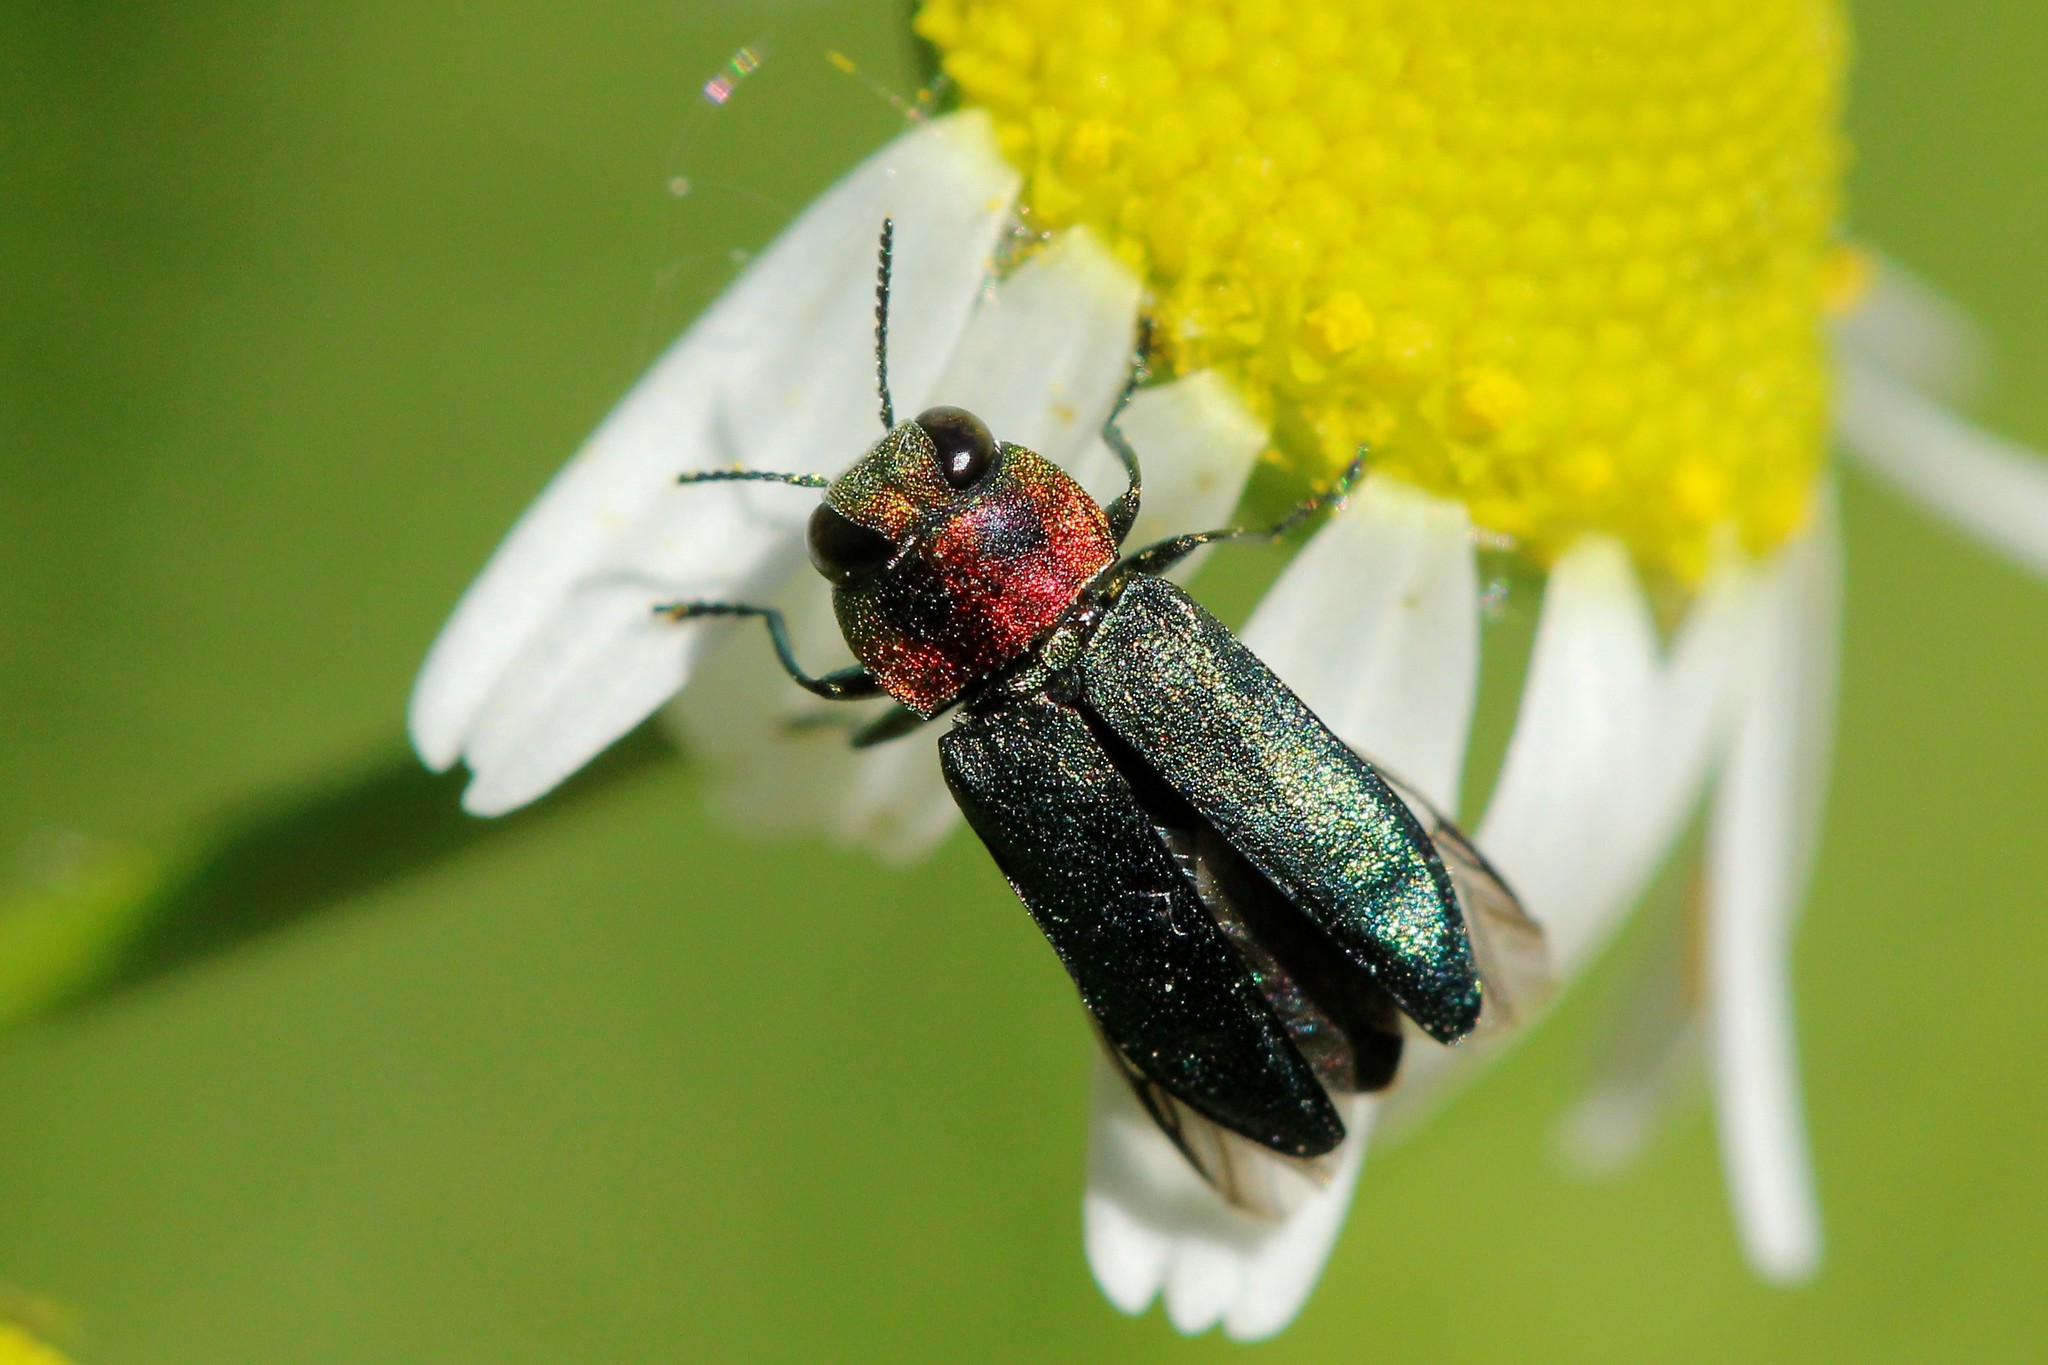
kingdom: Animalia
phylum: Arthropoda
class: Insecta
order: Coleoptera
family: Buprestidae
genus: Anthaxia
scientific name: Anthaxia nitidula
